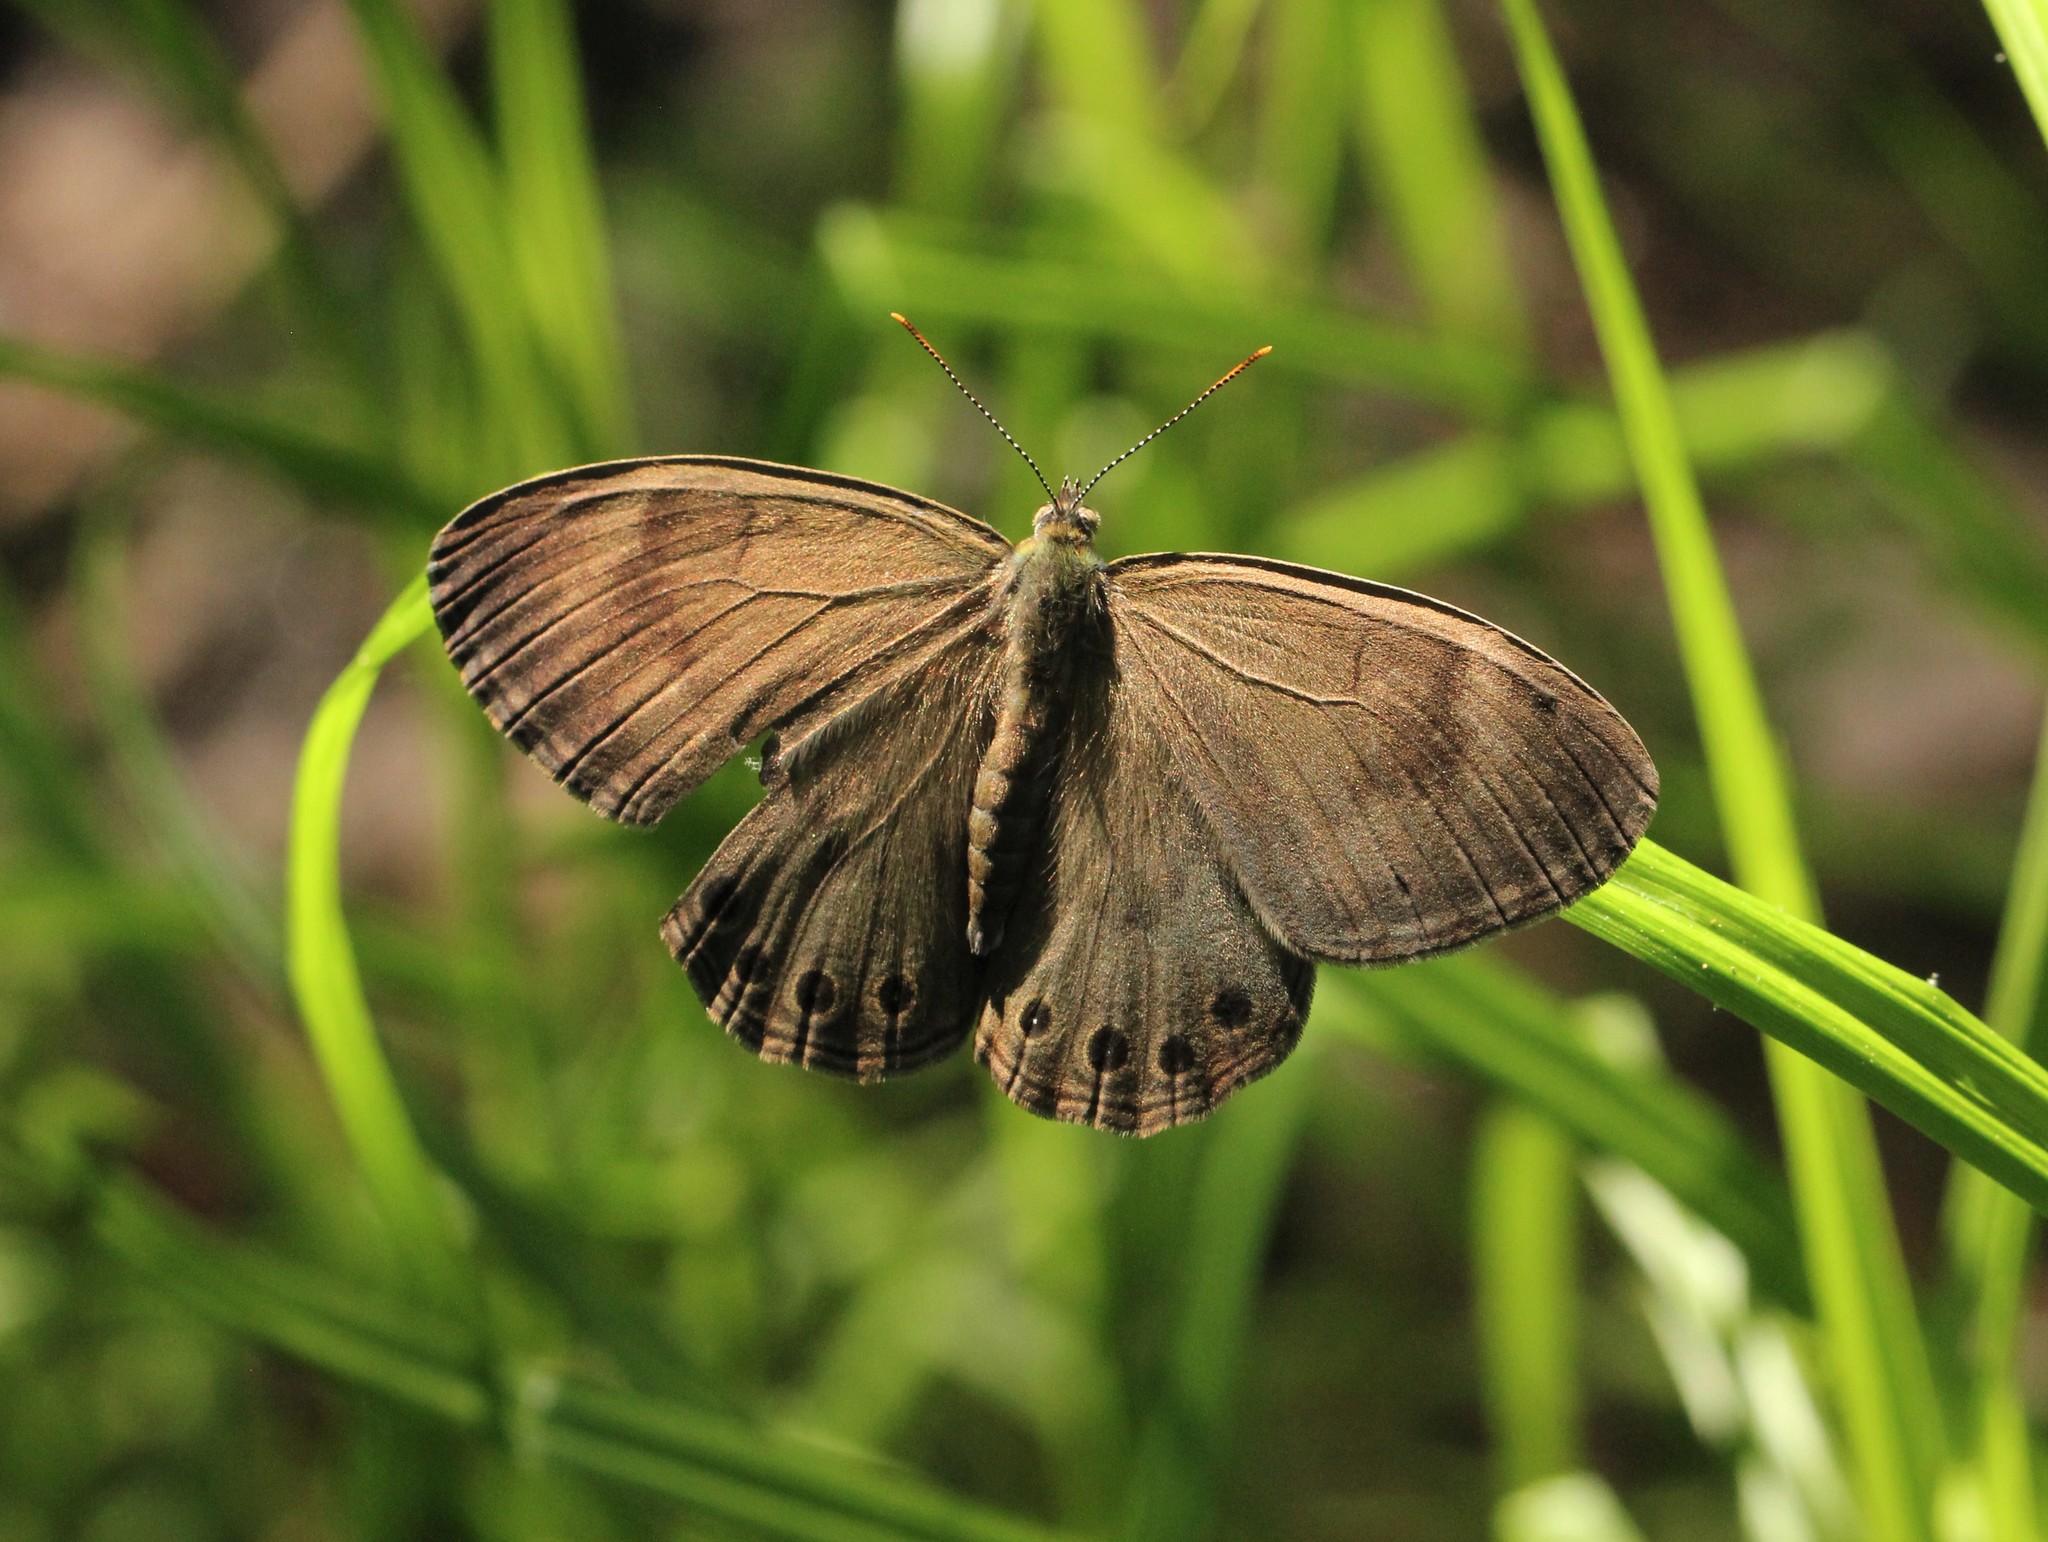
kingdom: Animalia
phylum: Arthropoda
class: Insecta
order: Lepidoptera
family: Nymphalidae
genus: Lethe
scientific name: Lethe eurydice
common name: Eyed brown
